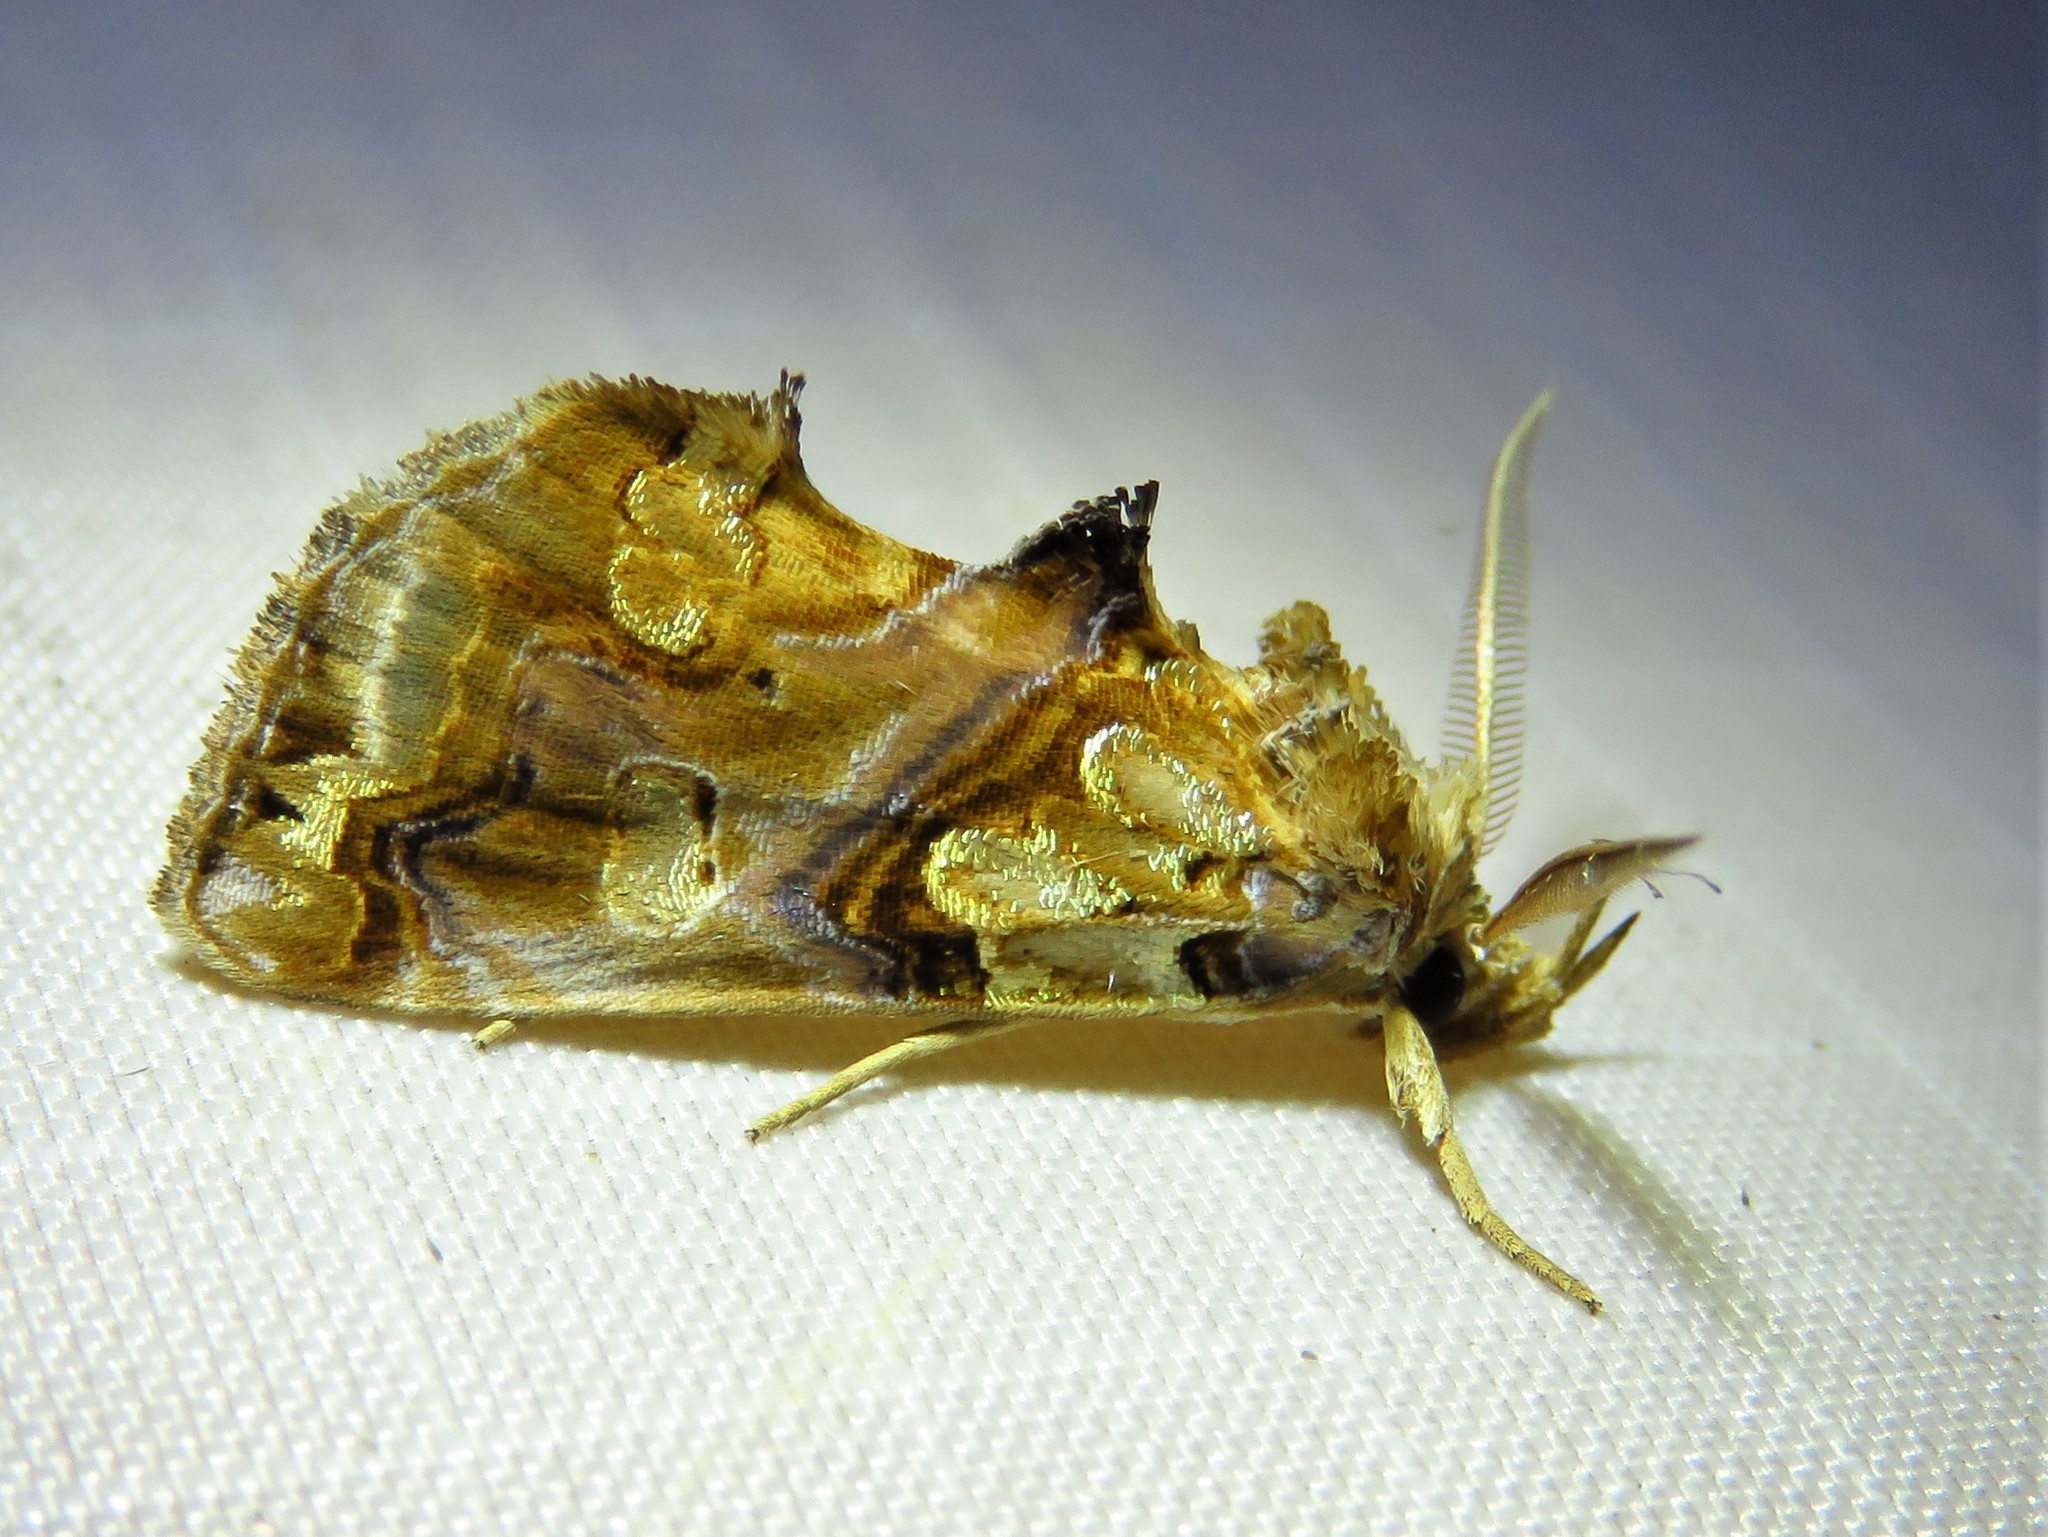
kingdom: Animalia
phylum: Arthropoda
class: Insecta
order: Lepidoptera
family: Erebidae
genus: Plusiodonta
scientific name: Plusiodonta compressipalpis
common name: Moonseed moth
